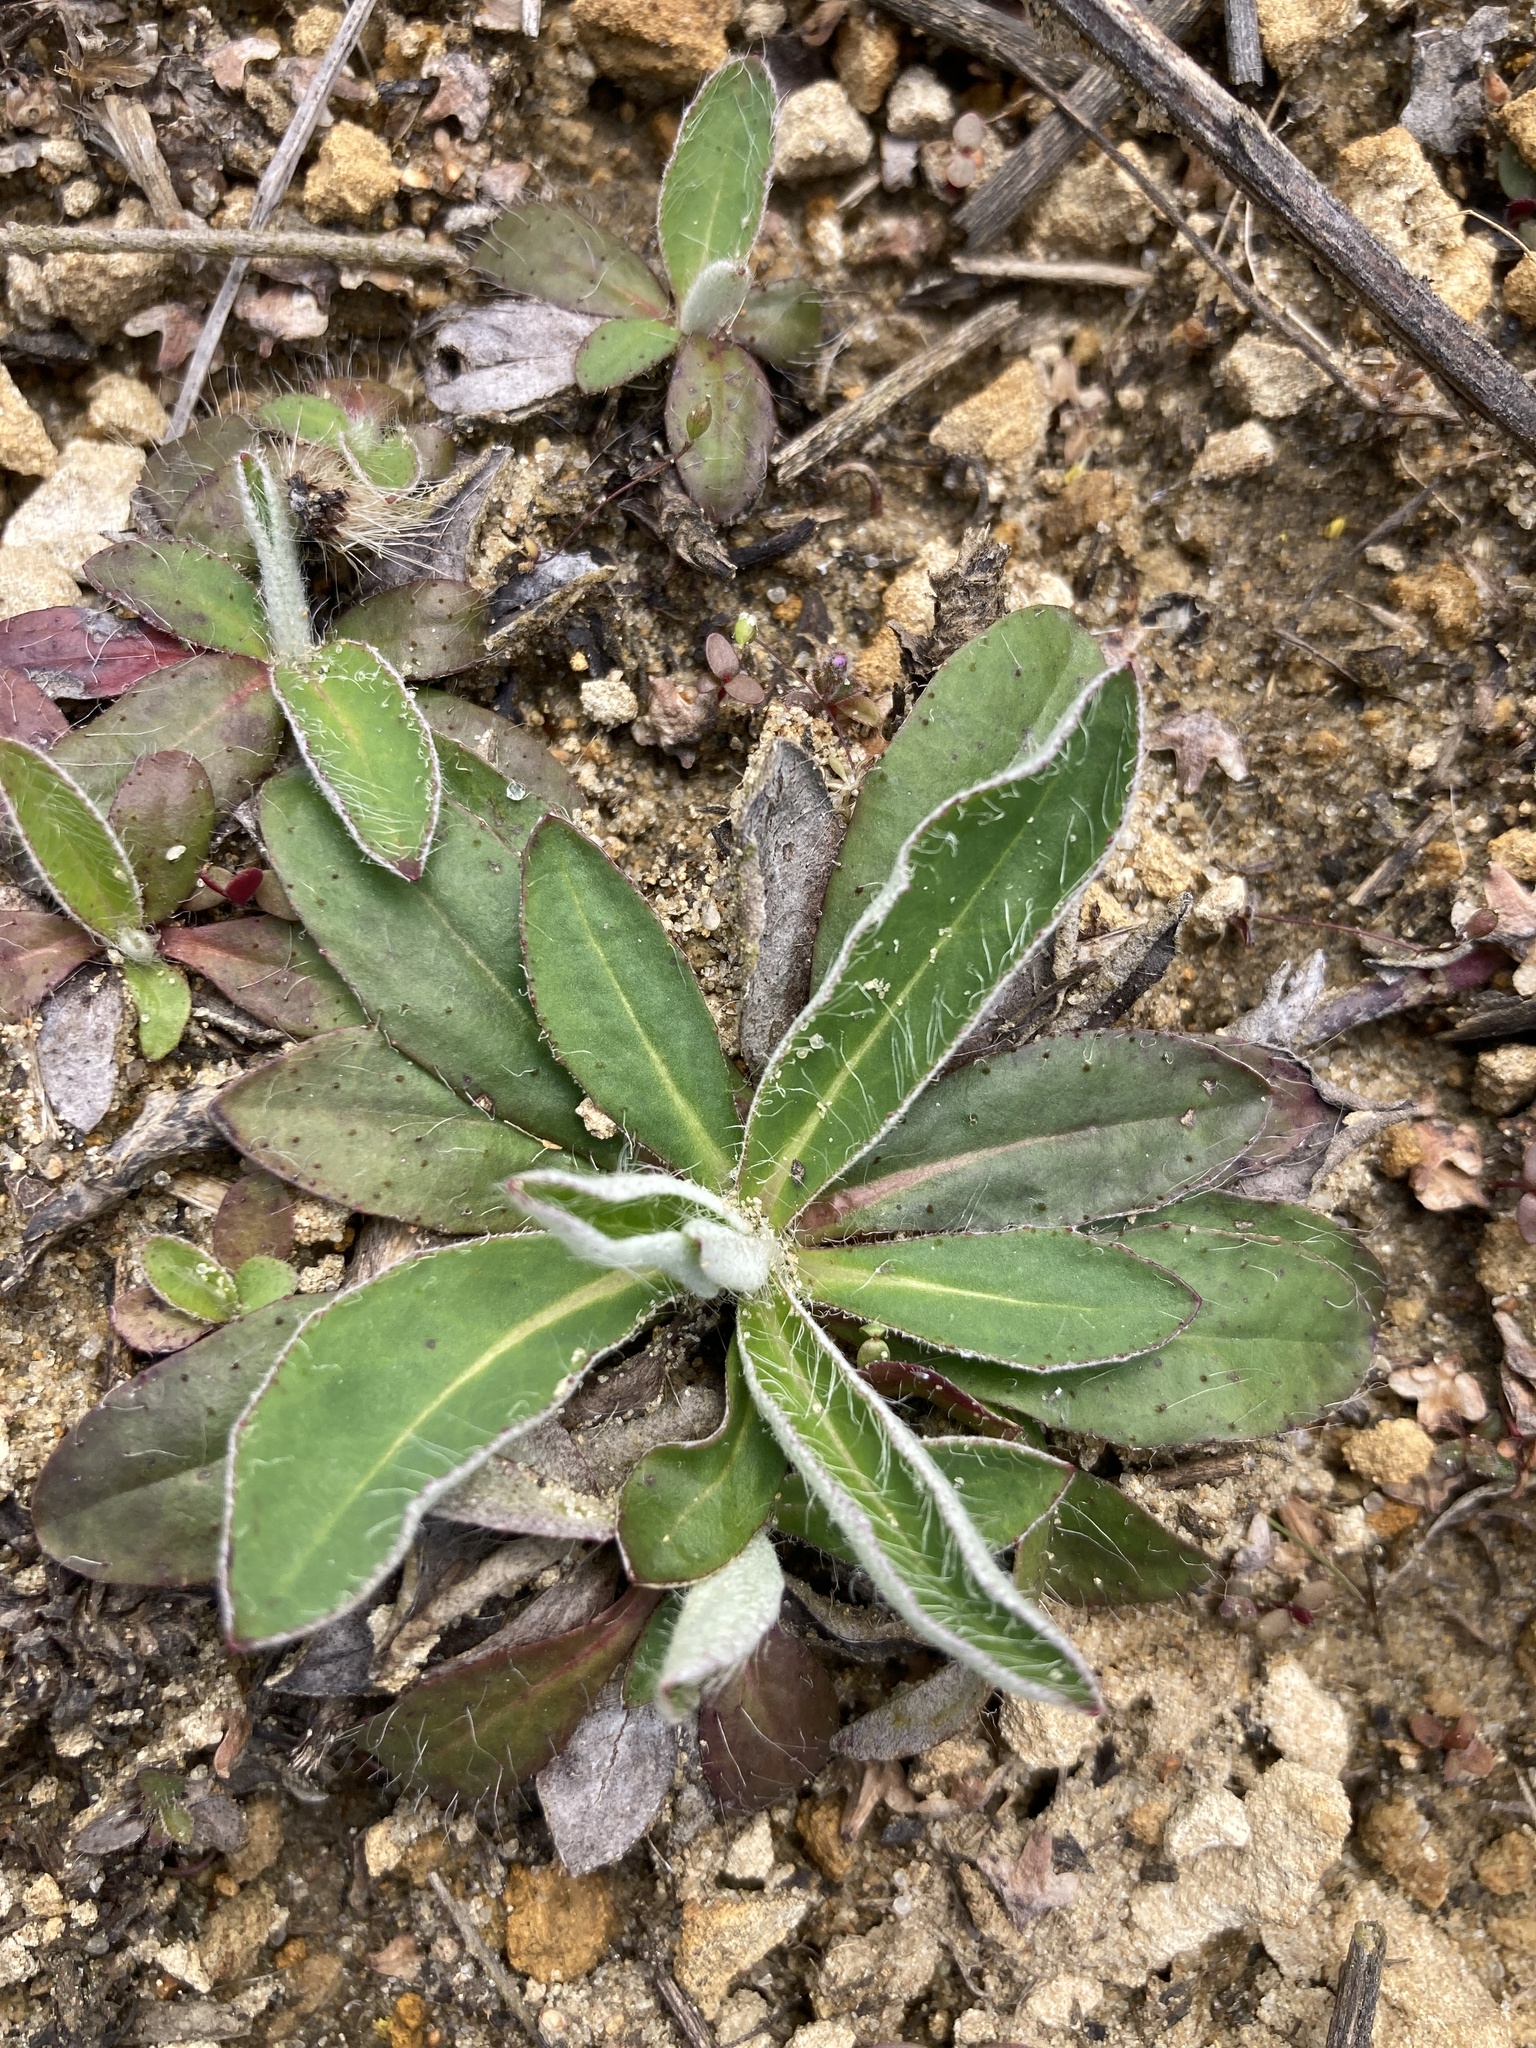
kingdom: Plantae
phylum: Tracheophyta
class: Magnoliopsida
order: Asterales
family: Asteraceae
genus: Pilosella
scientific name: Pilosella officinarum
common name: Mouse-ear hawkweed
